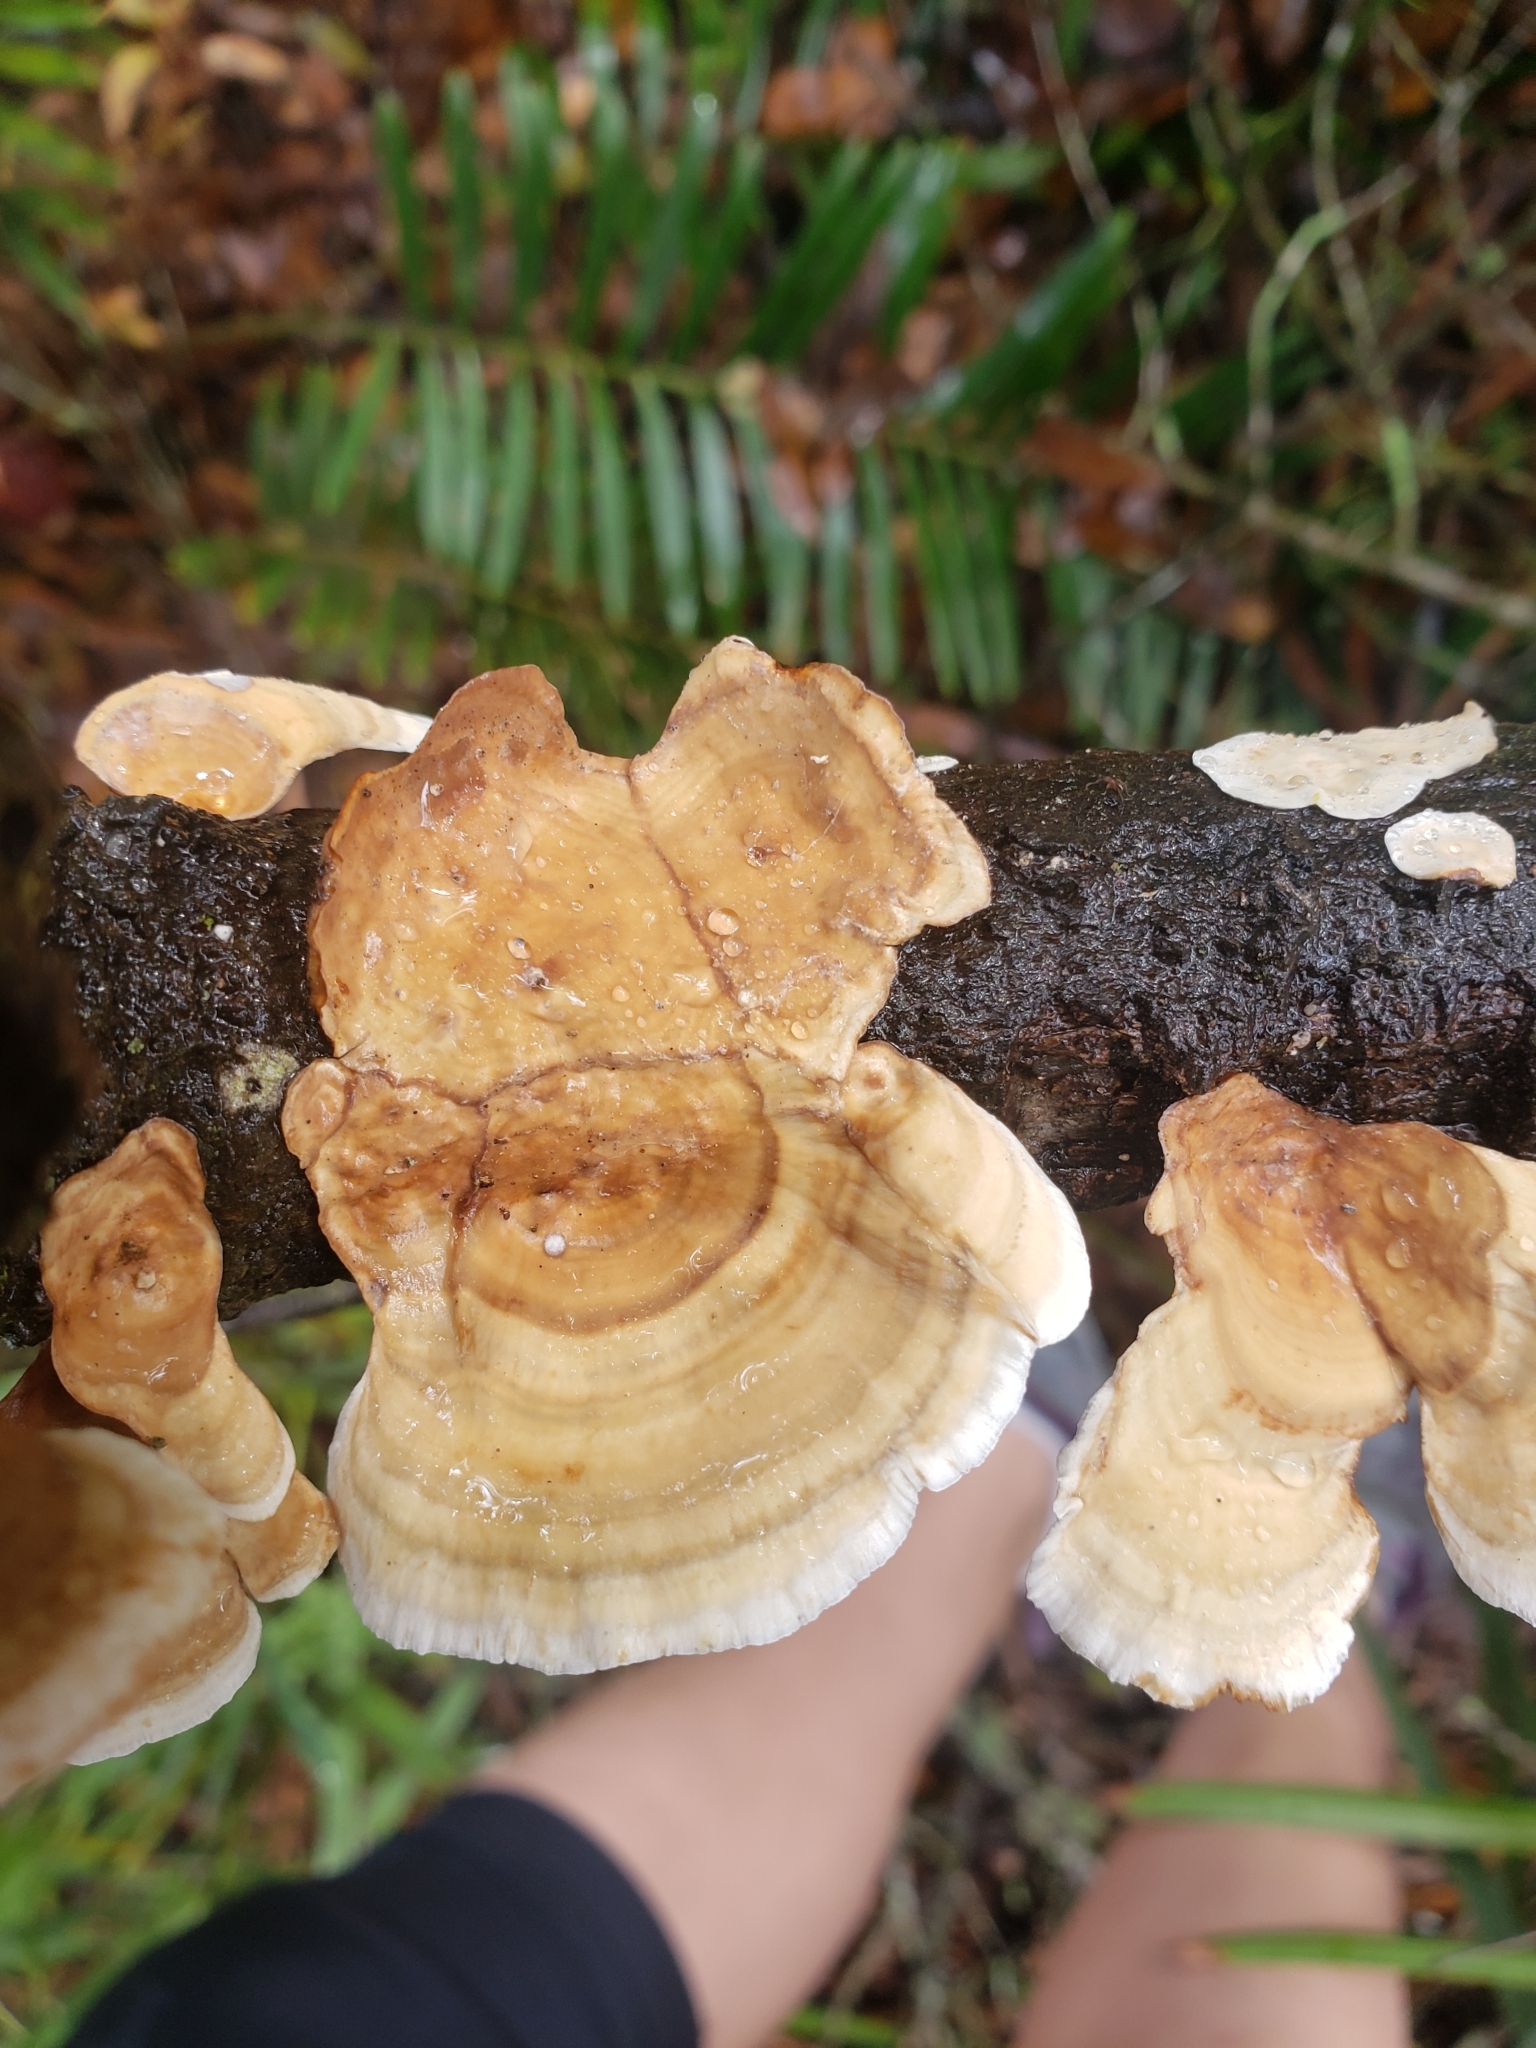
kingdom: Fungi
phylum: Basidiomycota
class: Agaricomycetes
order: Russulales
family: Stereaceae
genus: Stereum
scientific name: Stereum ostrea
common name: False turkeytail
